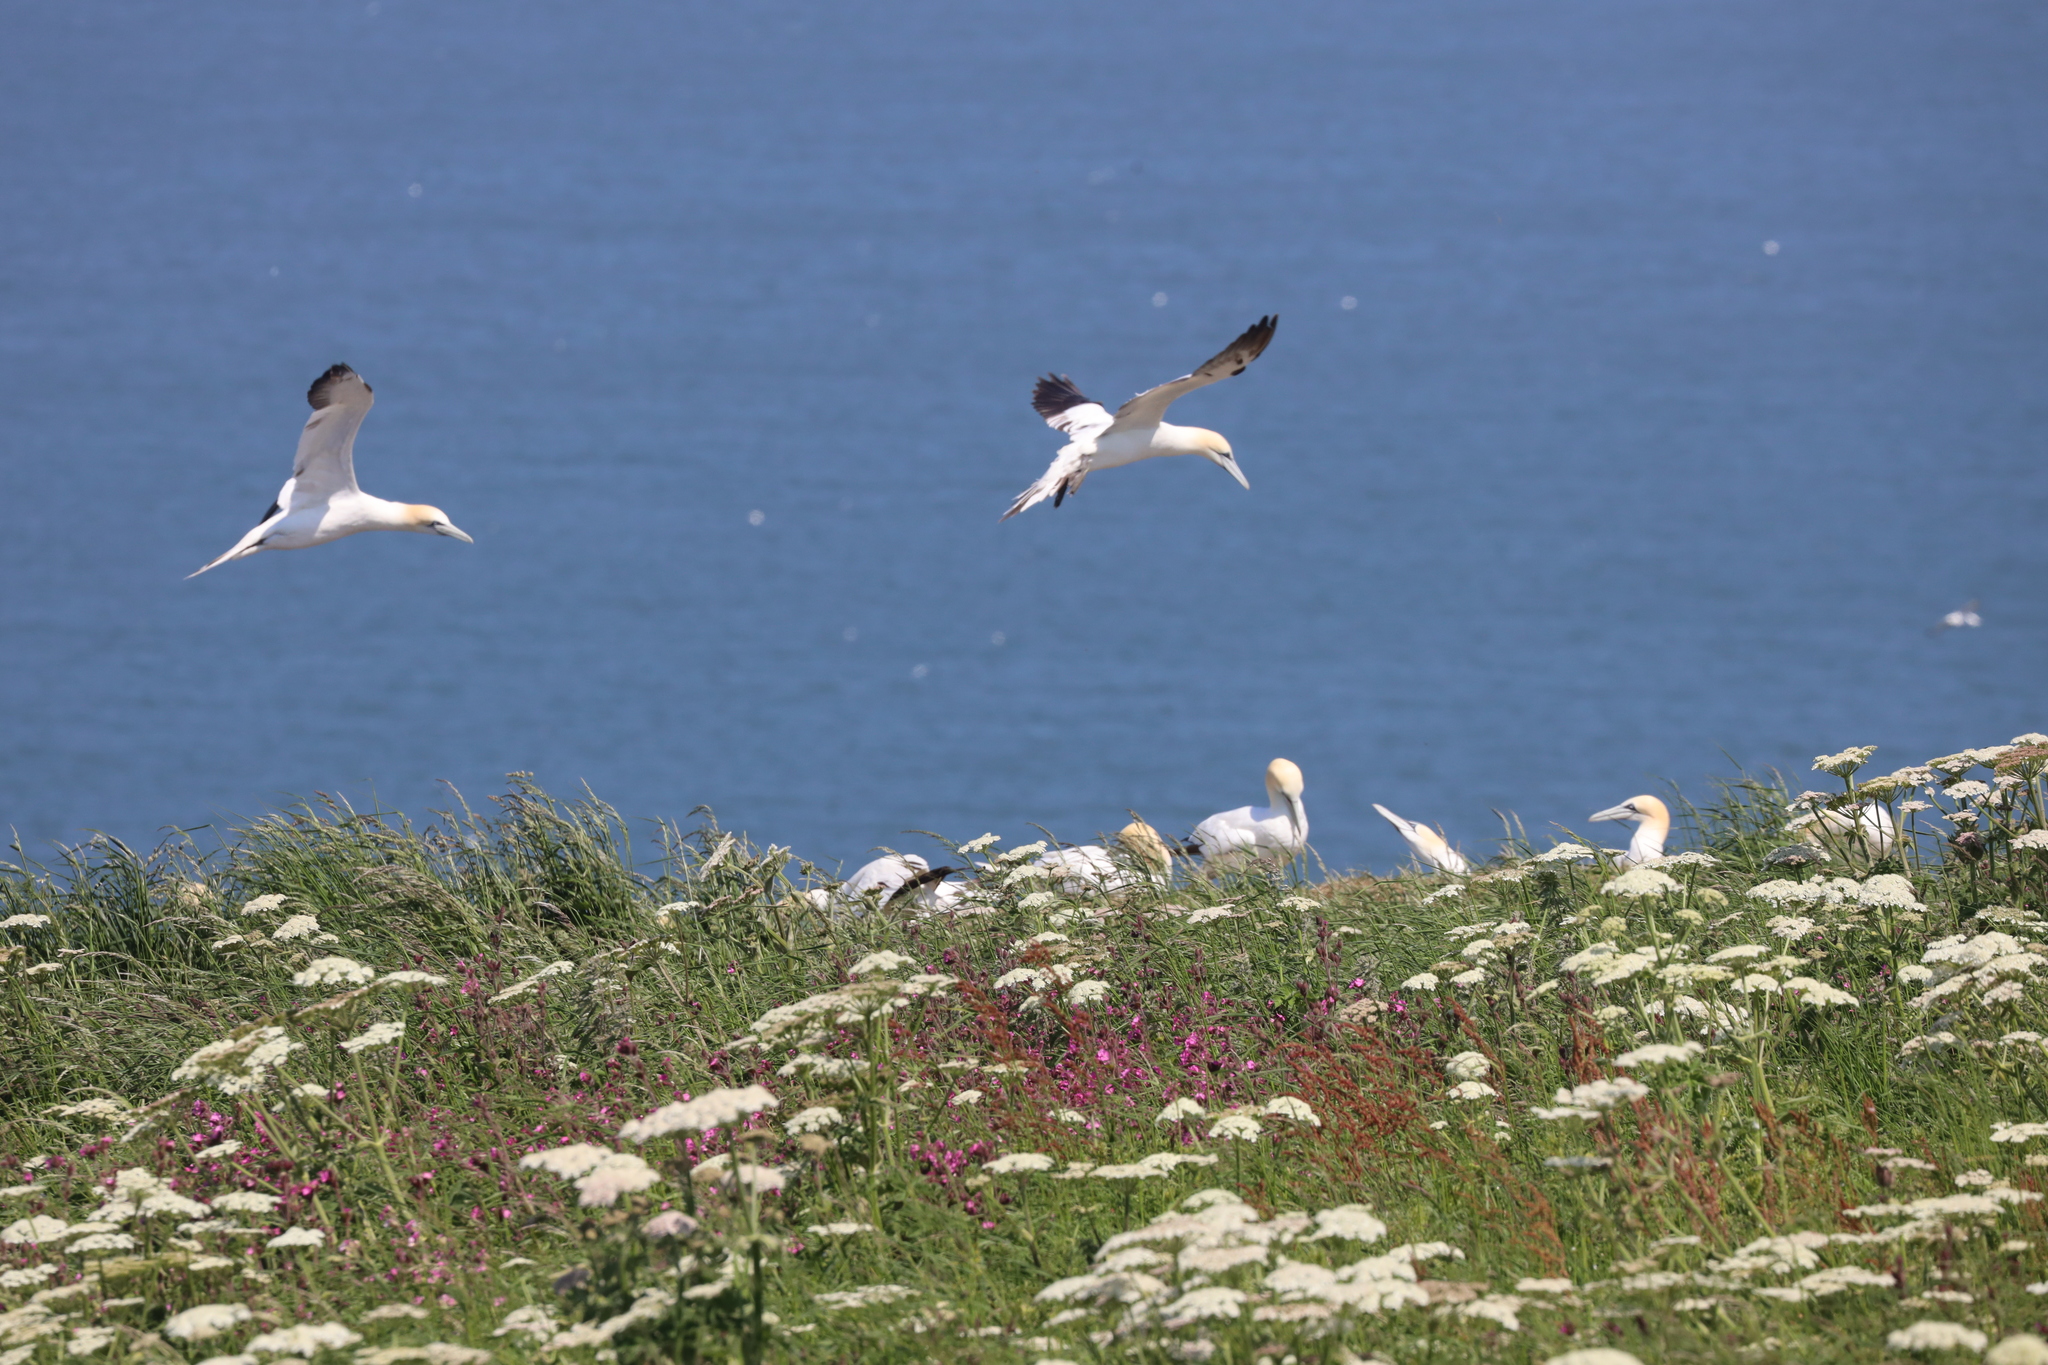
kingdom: Animalia
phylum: Chordata
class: Aves
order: Suliformes
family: Sulidae
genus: Morus
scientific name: Morus bassanus
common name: Northern gannet
